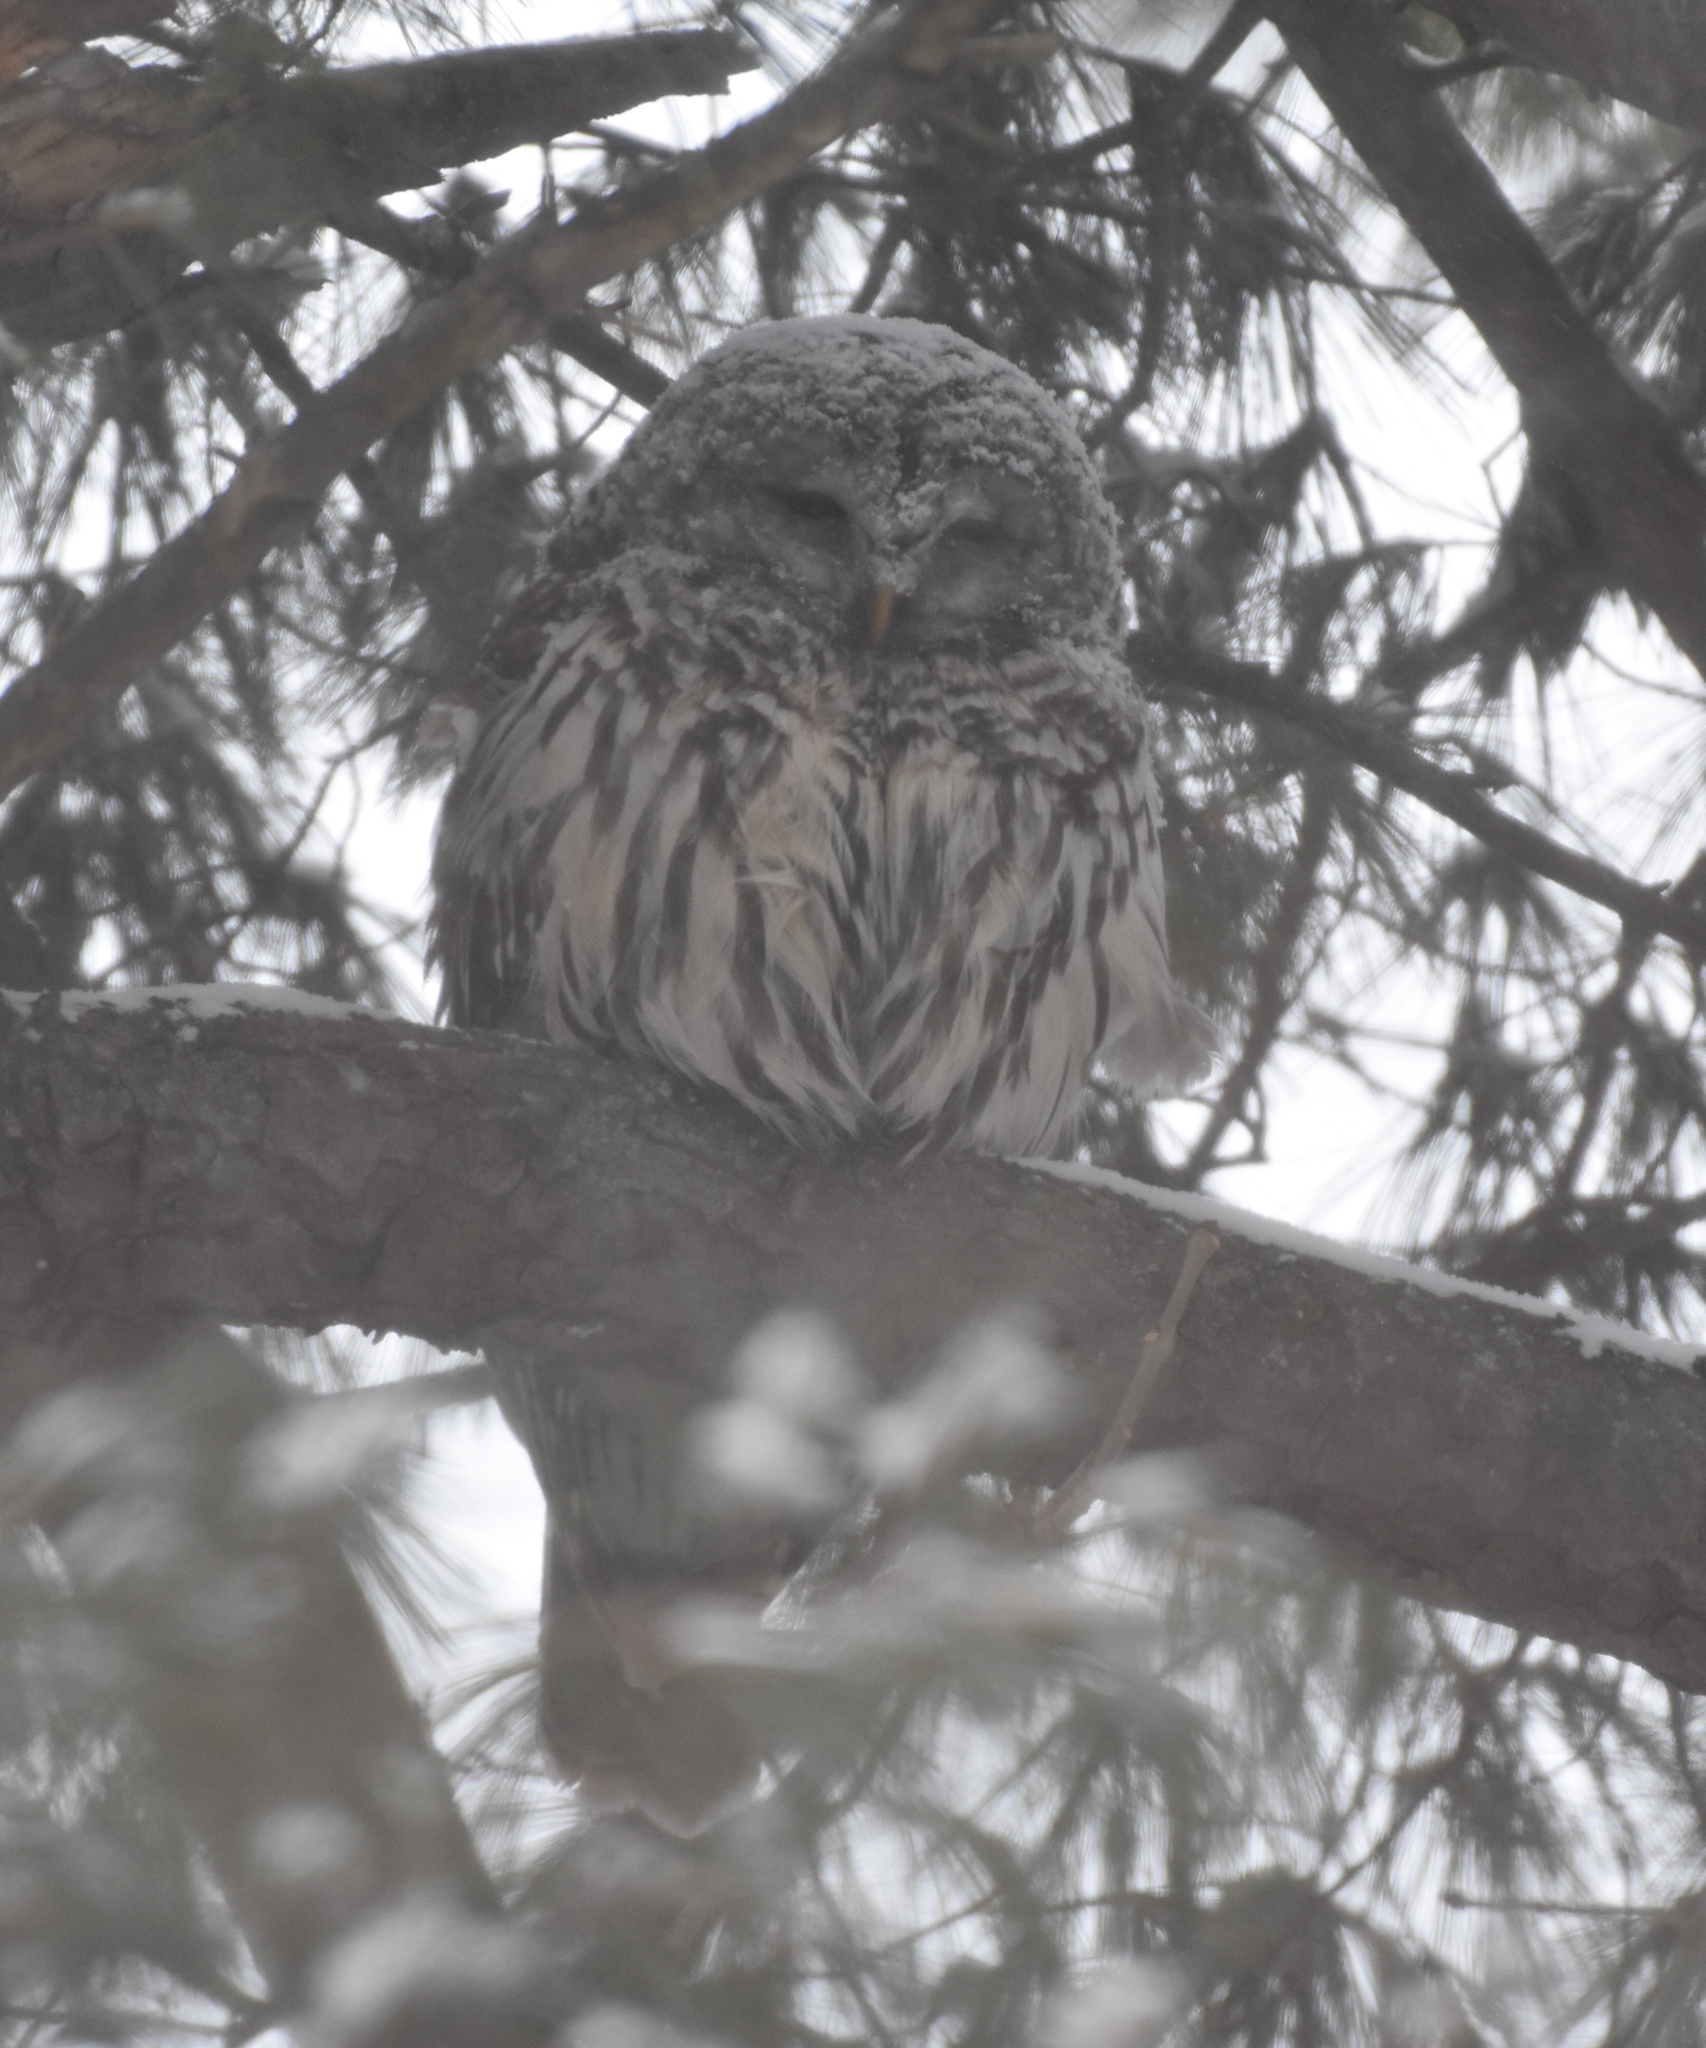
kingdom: Animalia
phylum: Chordata
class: Aves
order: Strigiformes
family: Strigidae
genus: Strix
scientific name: Strix varia
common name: Barred owl
